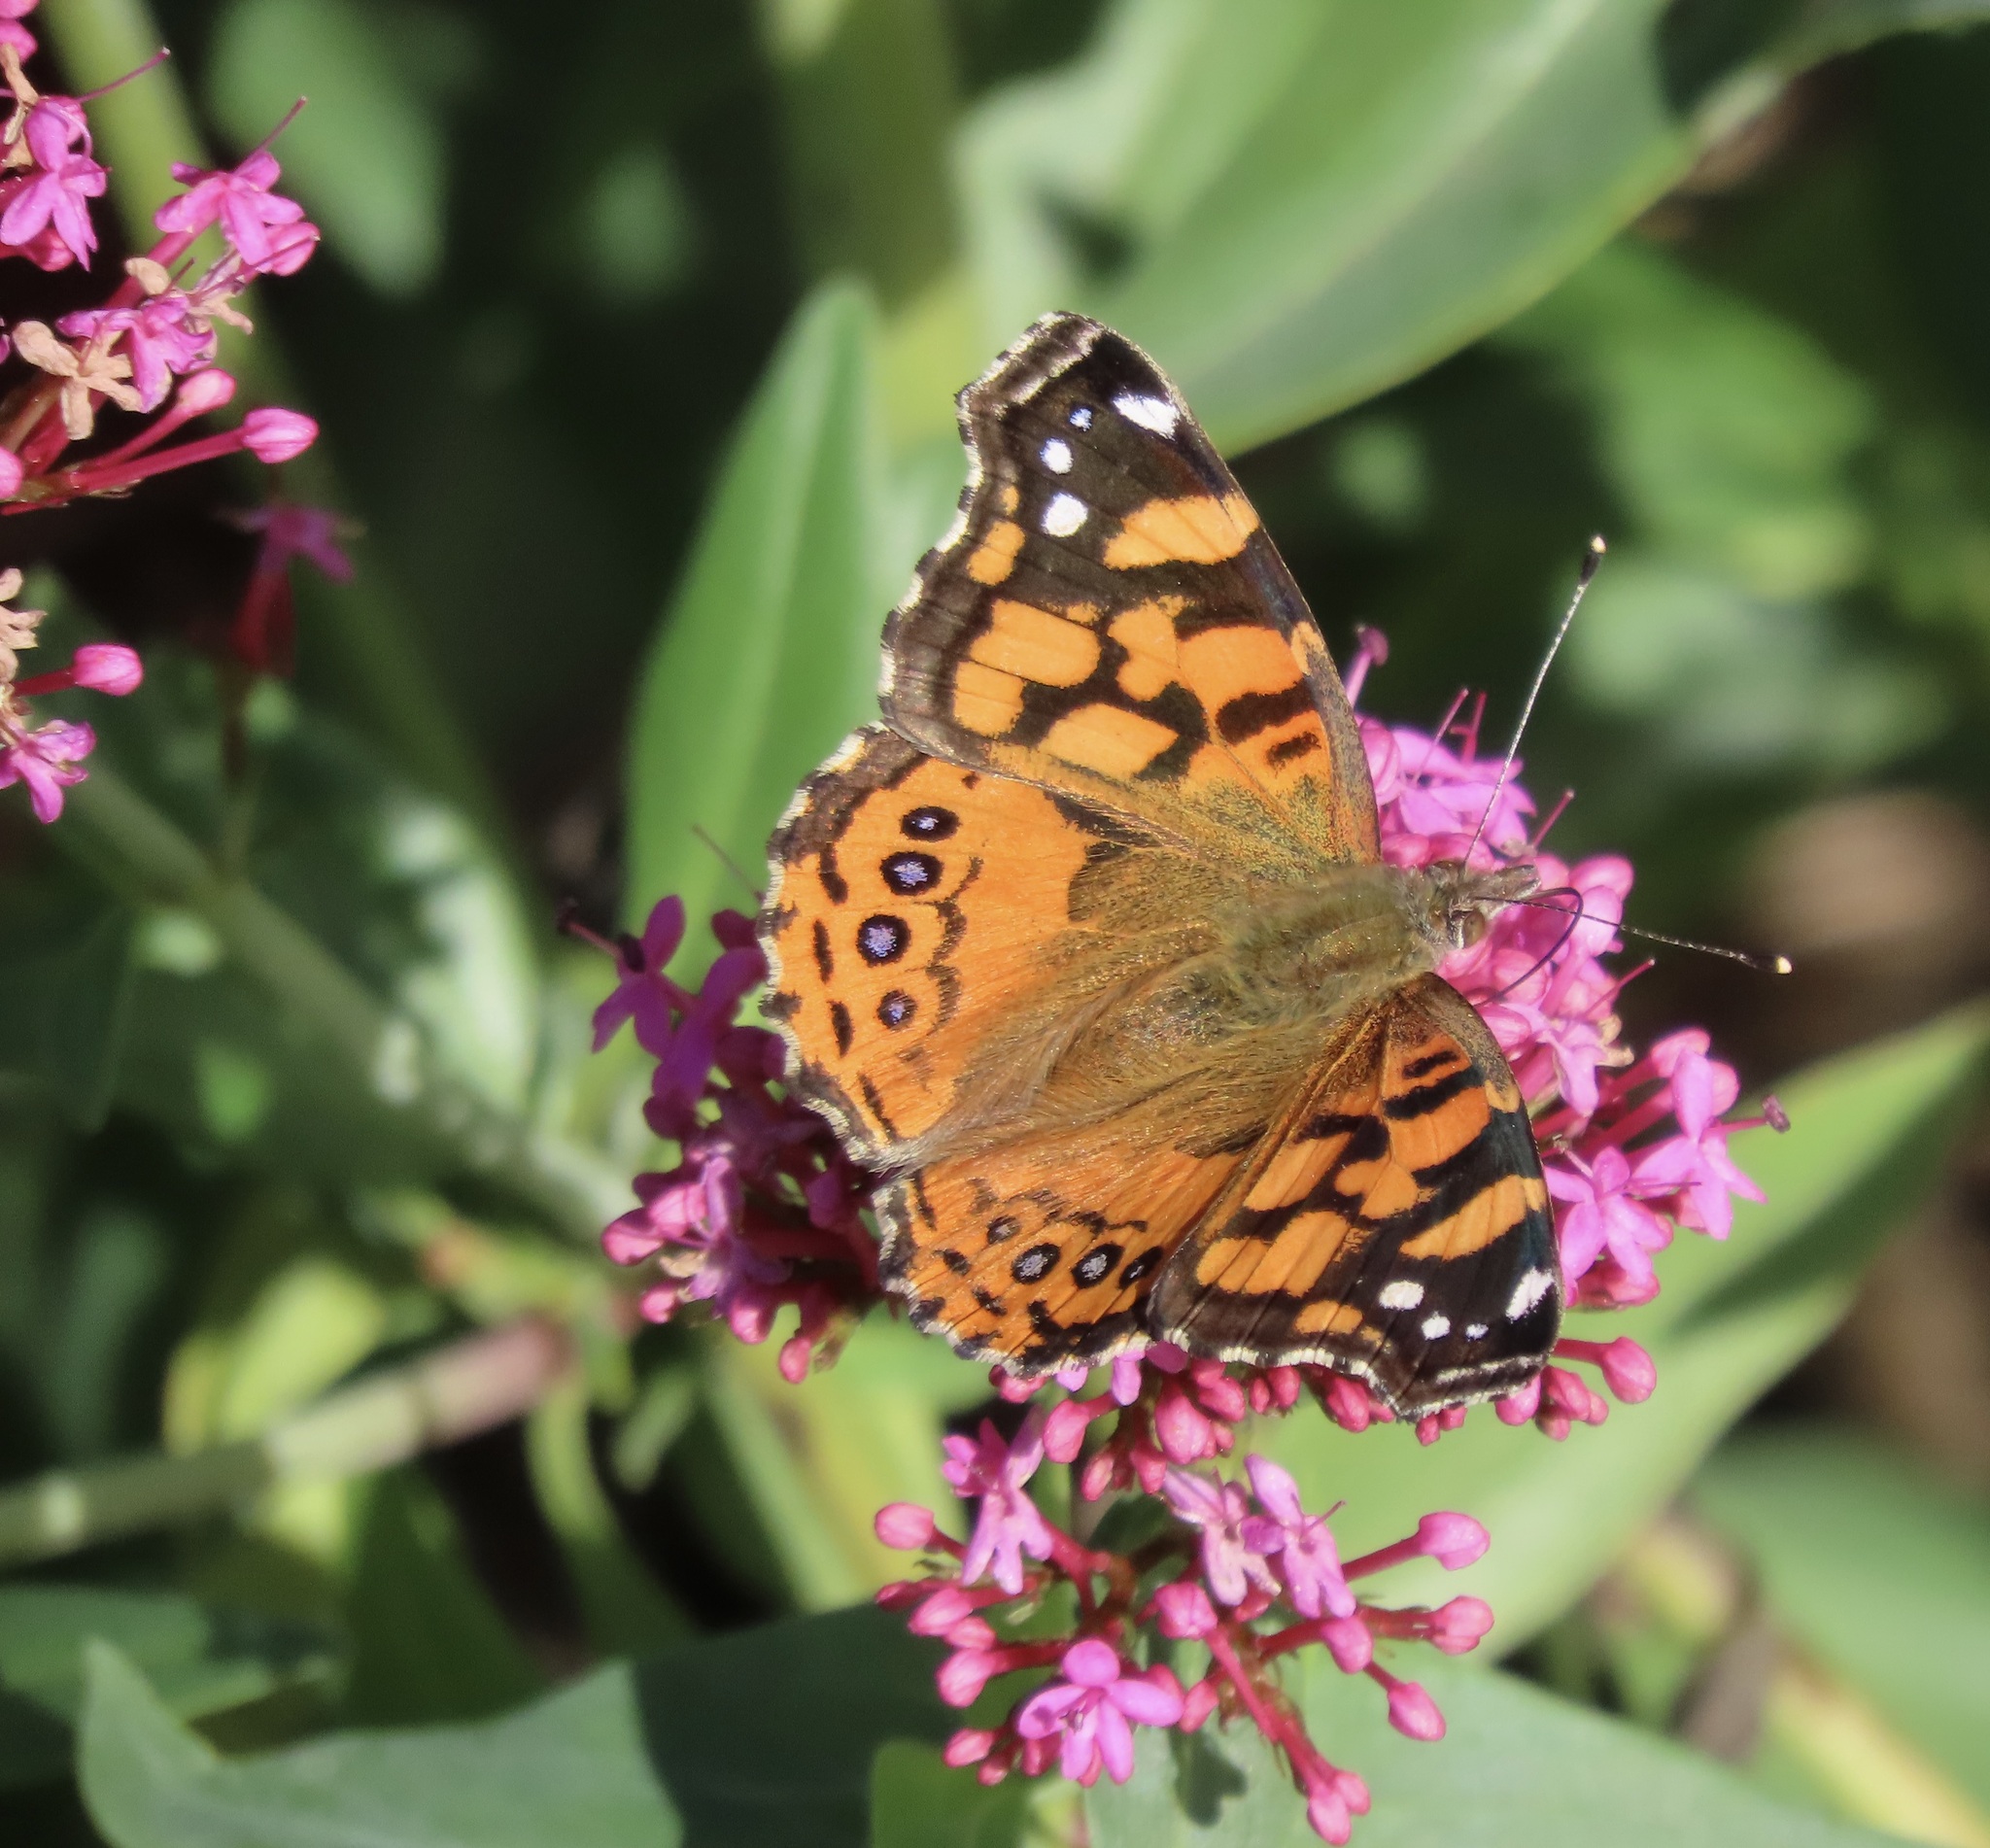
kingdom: Animalia
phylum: Arthropoda
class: Insecta
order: Lepidoptera
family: Nymphalidae
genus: Vanessa
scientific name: Vanessa annabella
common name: West coast lady
